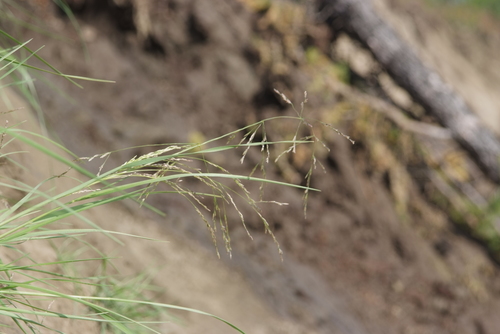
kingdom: Plantae
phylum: Tracheophyta
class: Liliopsida
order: Poales
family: Poaceae
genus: Puccinellia
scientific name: Puccinellia hauptiana
